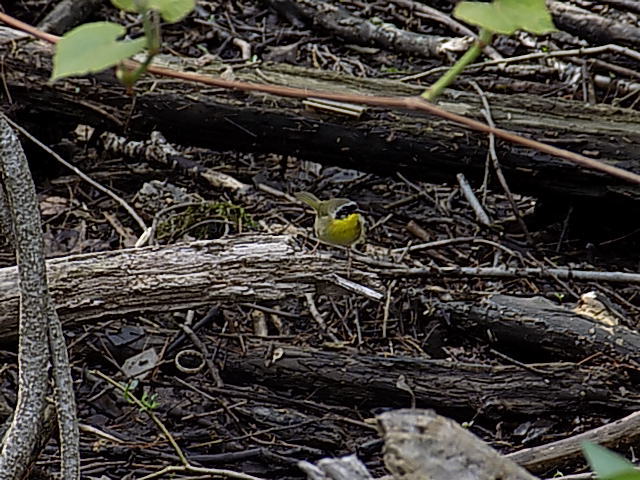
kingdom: Animalia
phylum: Chordata
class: Aves
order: Passeriformes
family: Parulidae
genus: Geothlypis
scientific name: Geothlypis trichas
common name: Common yellowthroat
